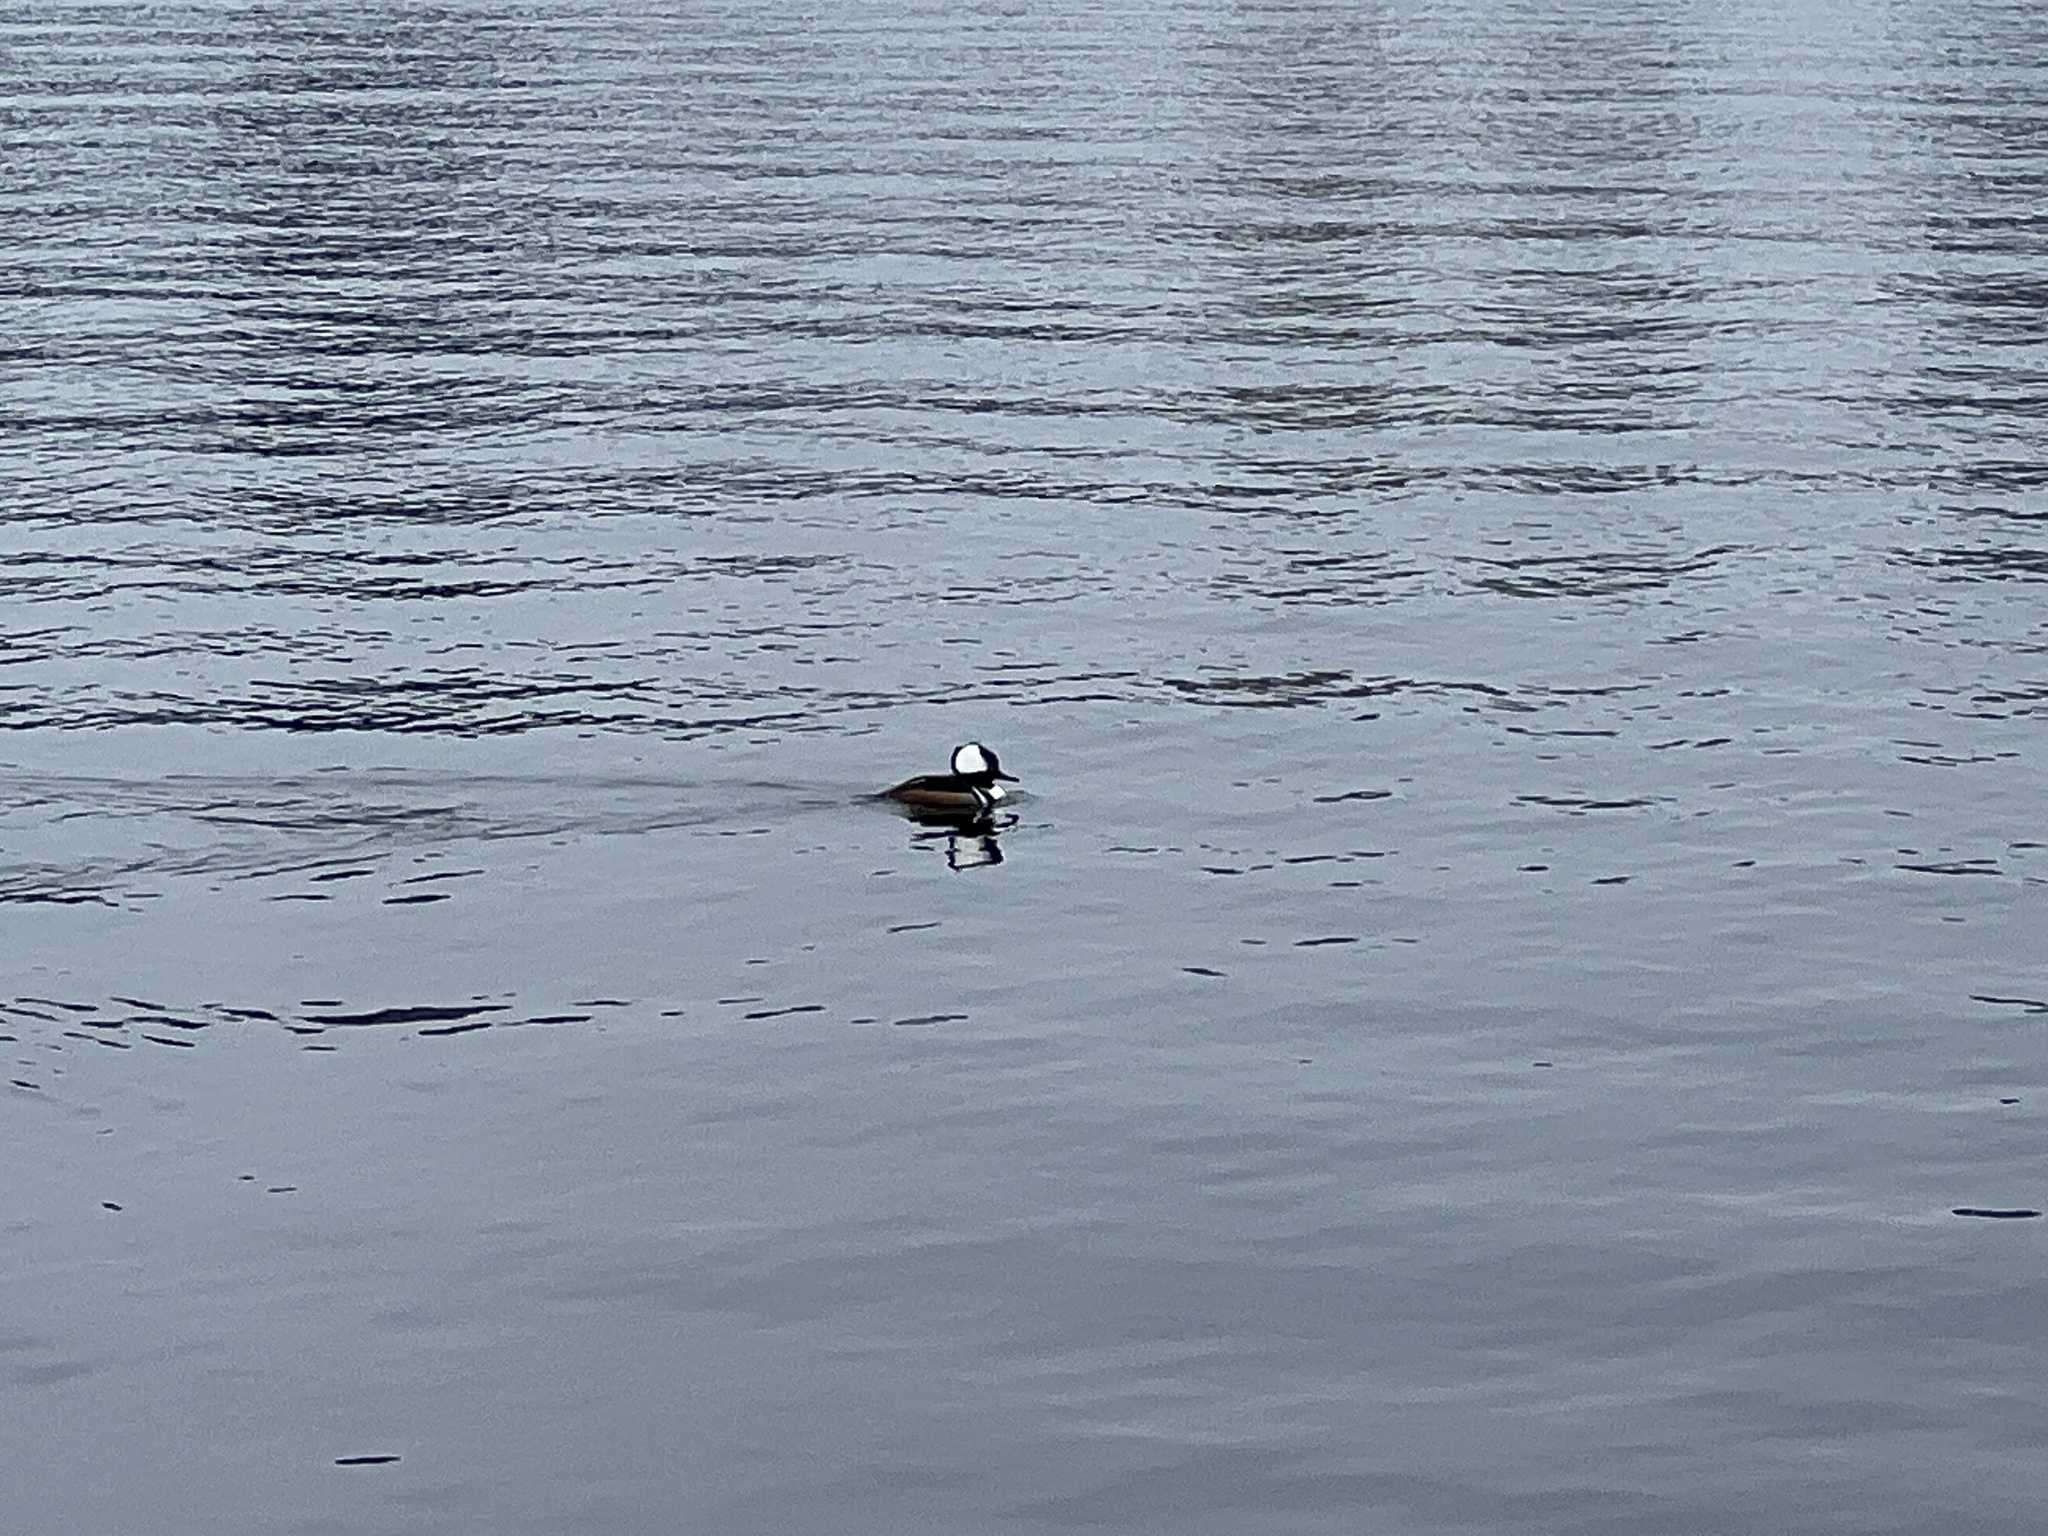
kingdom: Animalia
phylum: Chordata
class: Aves
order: Anseriformes
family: Anatidae
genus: Lophodytes
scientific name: Lophodytes cucullatus
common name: Hooded merganser
